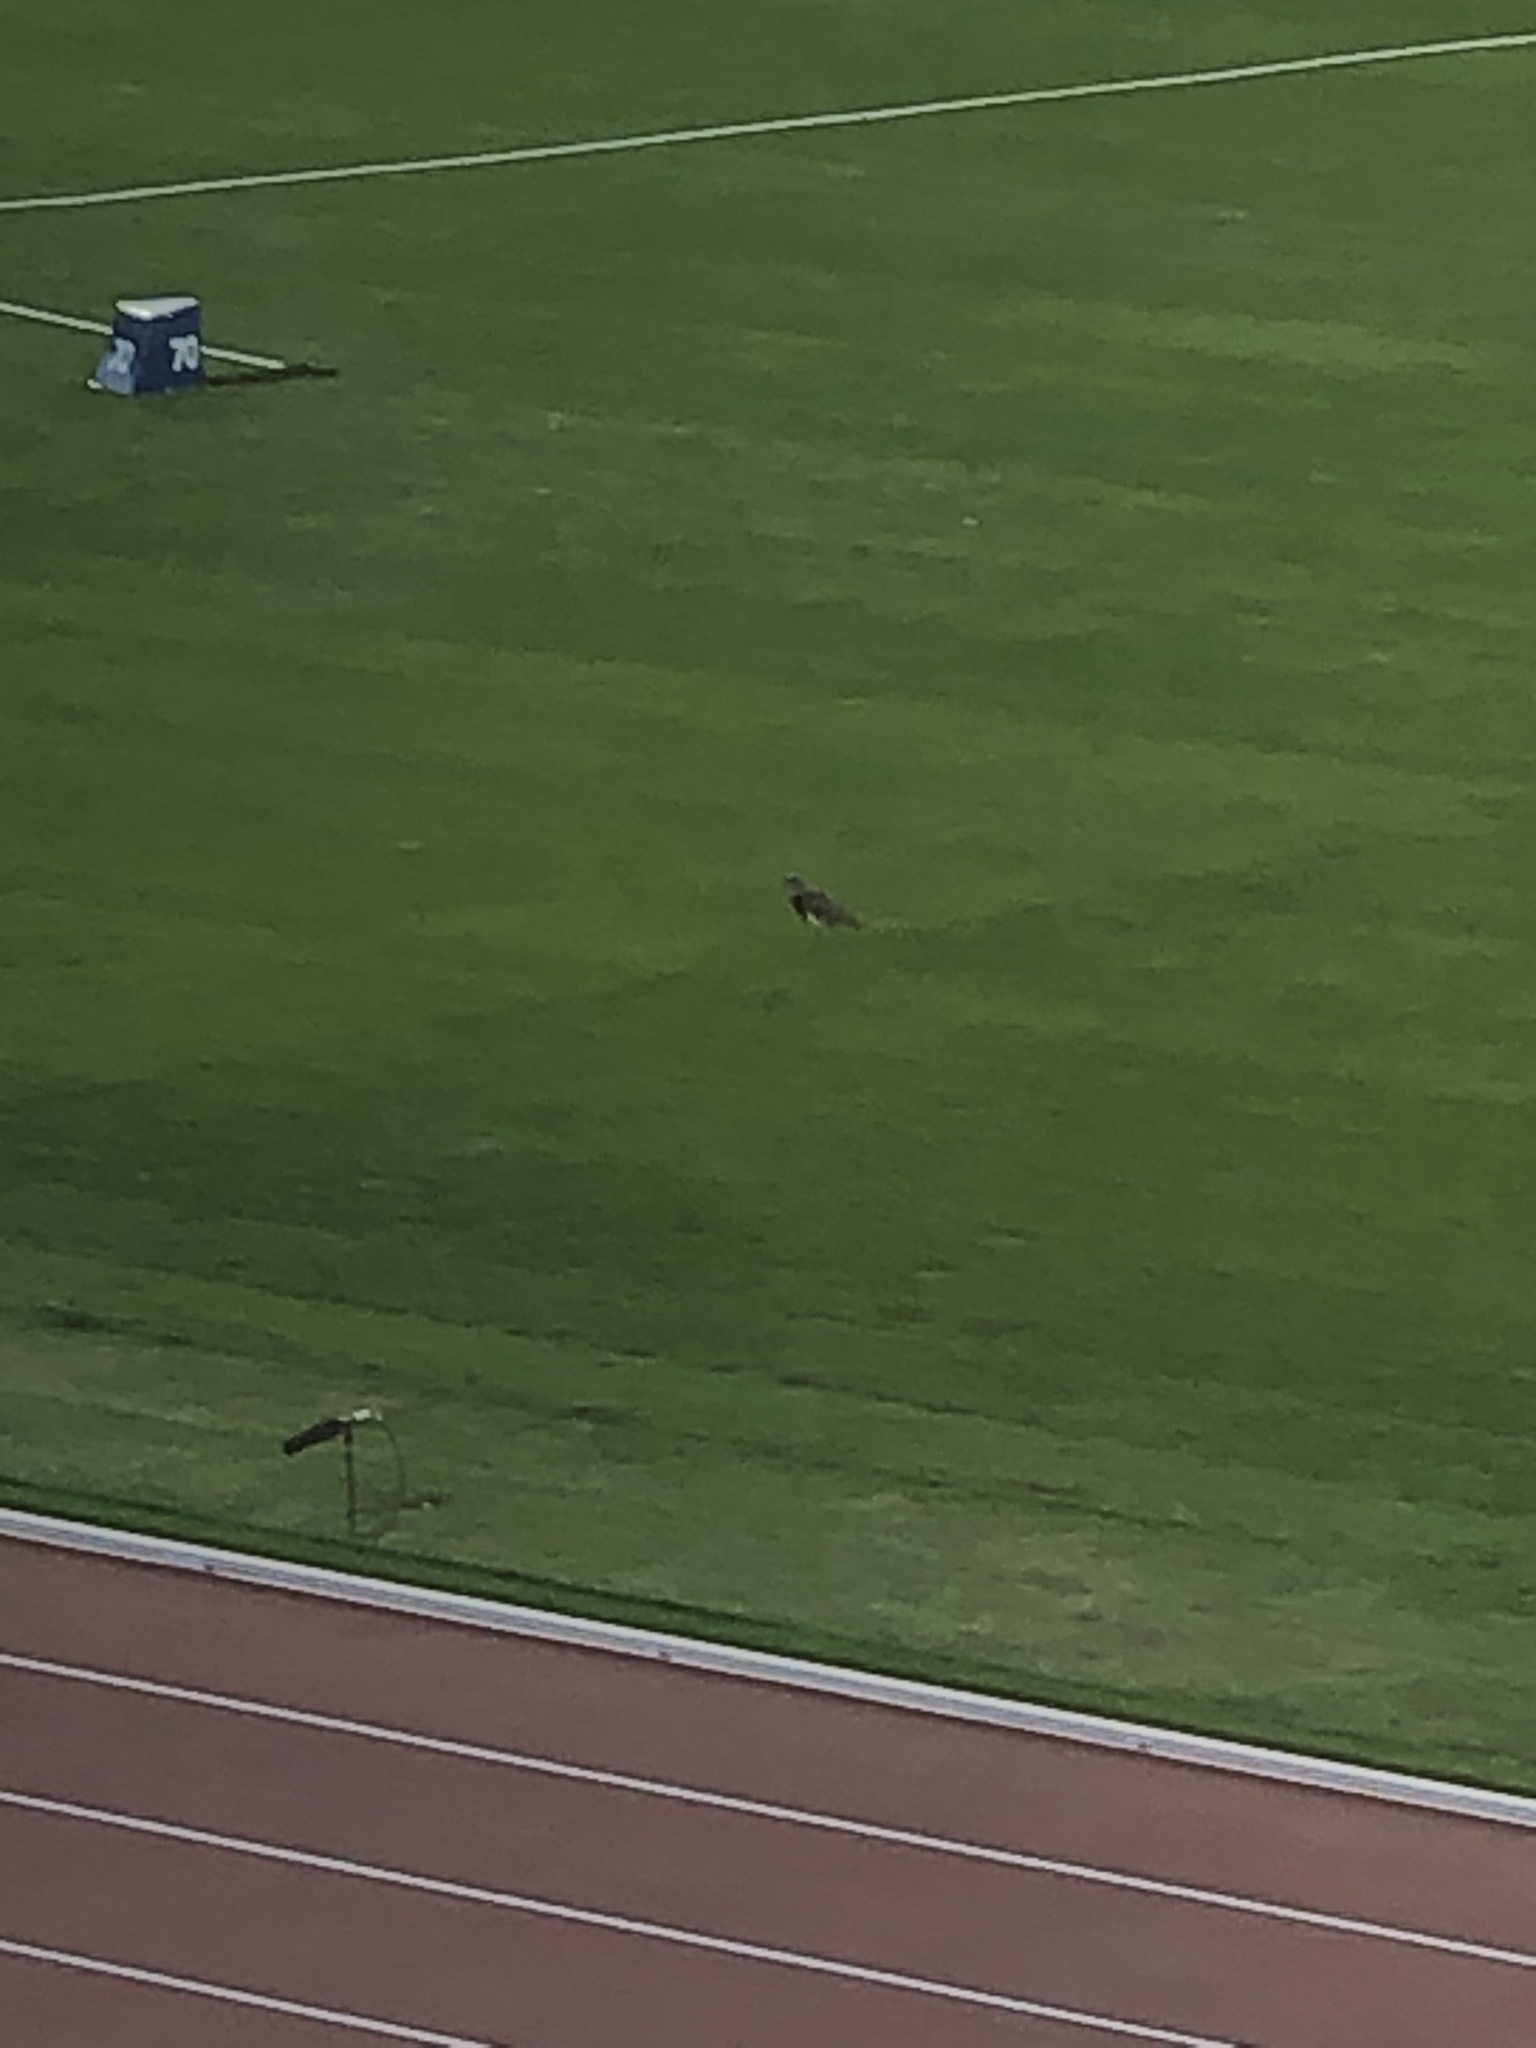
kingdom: Animalia
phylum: Chordata
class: Aves
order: Charadriiformes
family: Charadriidae
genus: Vanellus
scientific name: Vanellus chilensis
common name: Southern lapwing
